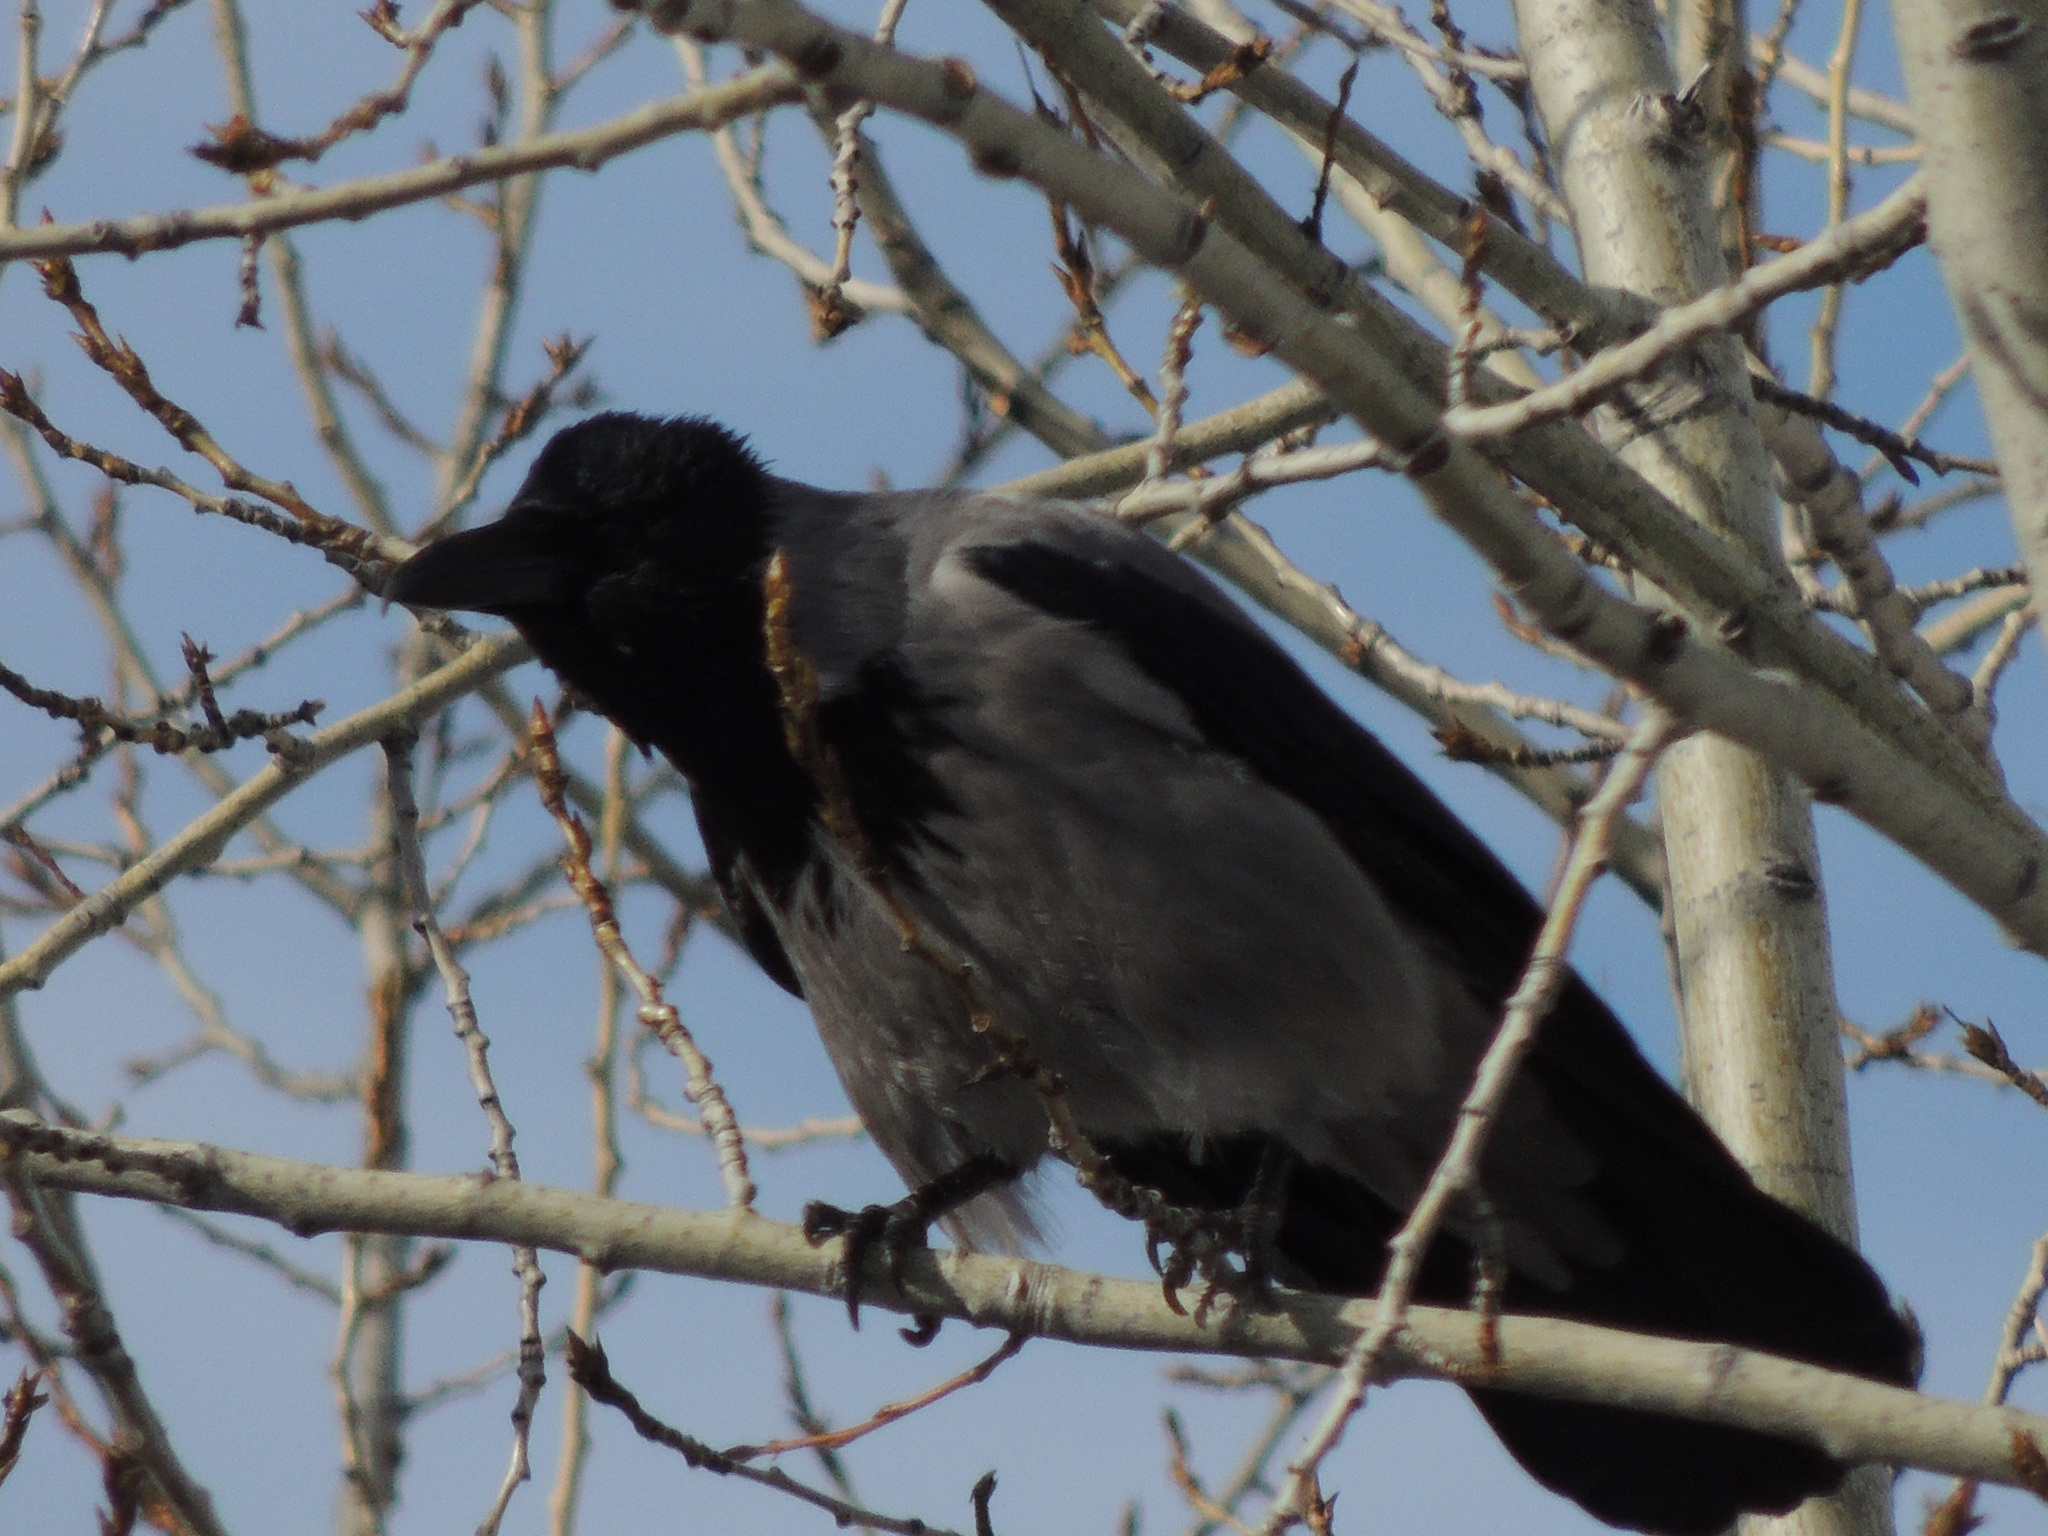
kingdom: Animalia
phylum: Chordata
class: Aves
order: Passeriformes
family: Corvidae
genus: Corvus
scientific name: Corvus cornix
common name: Hooded crow
